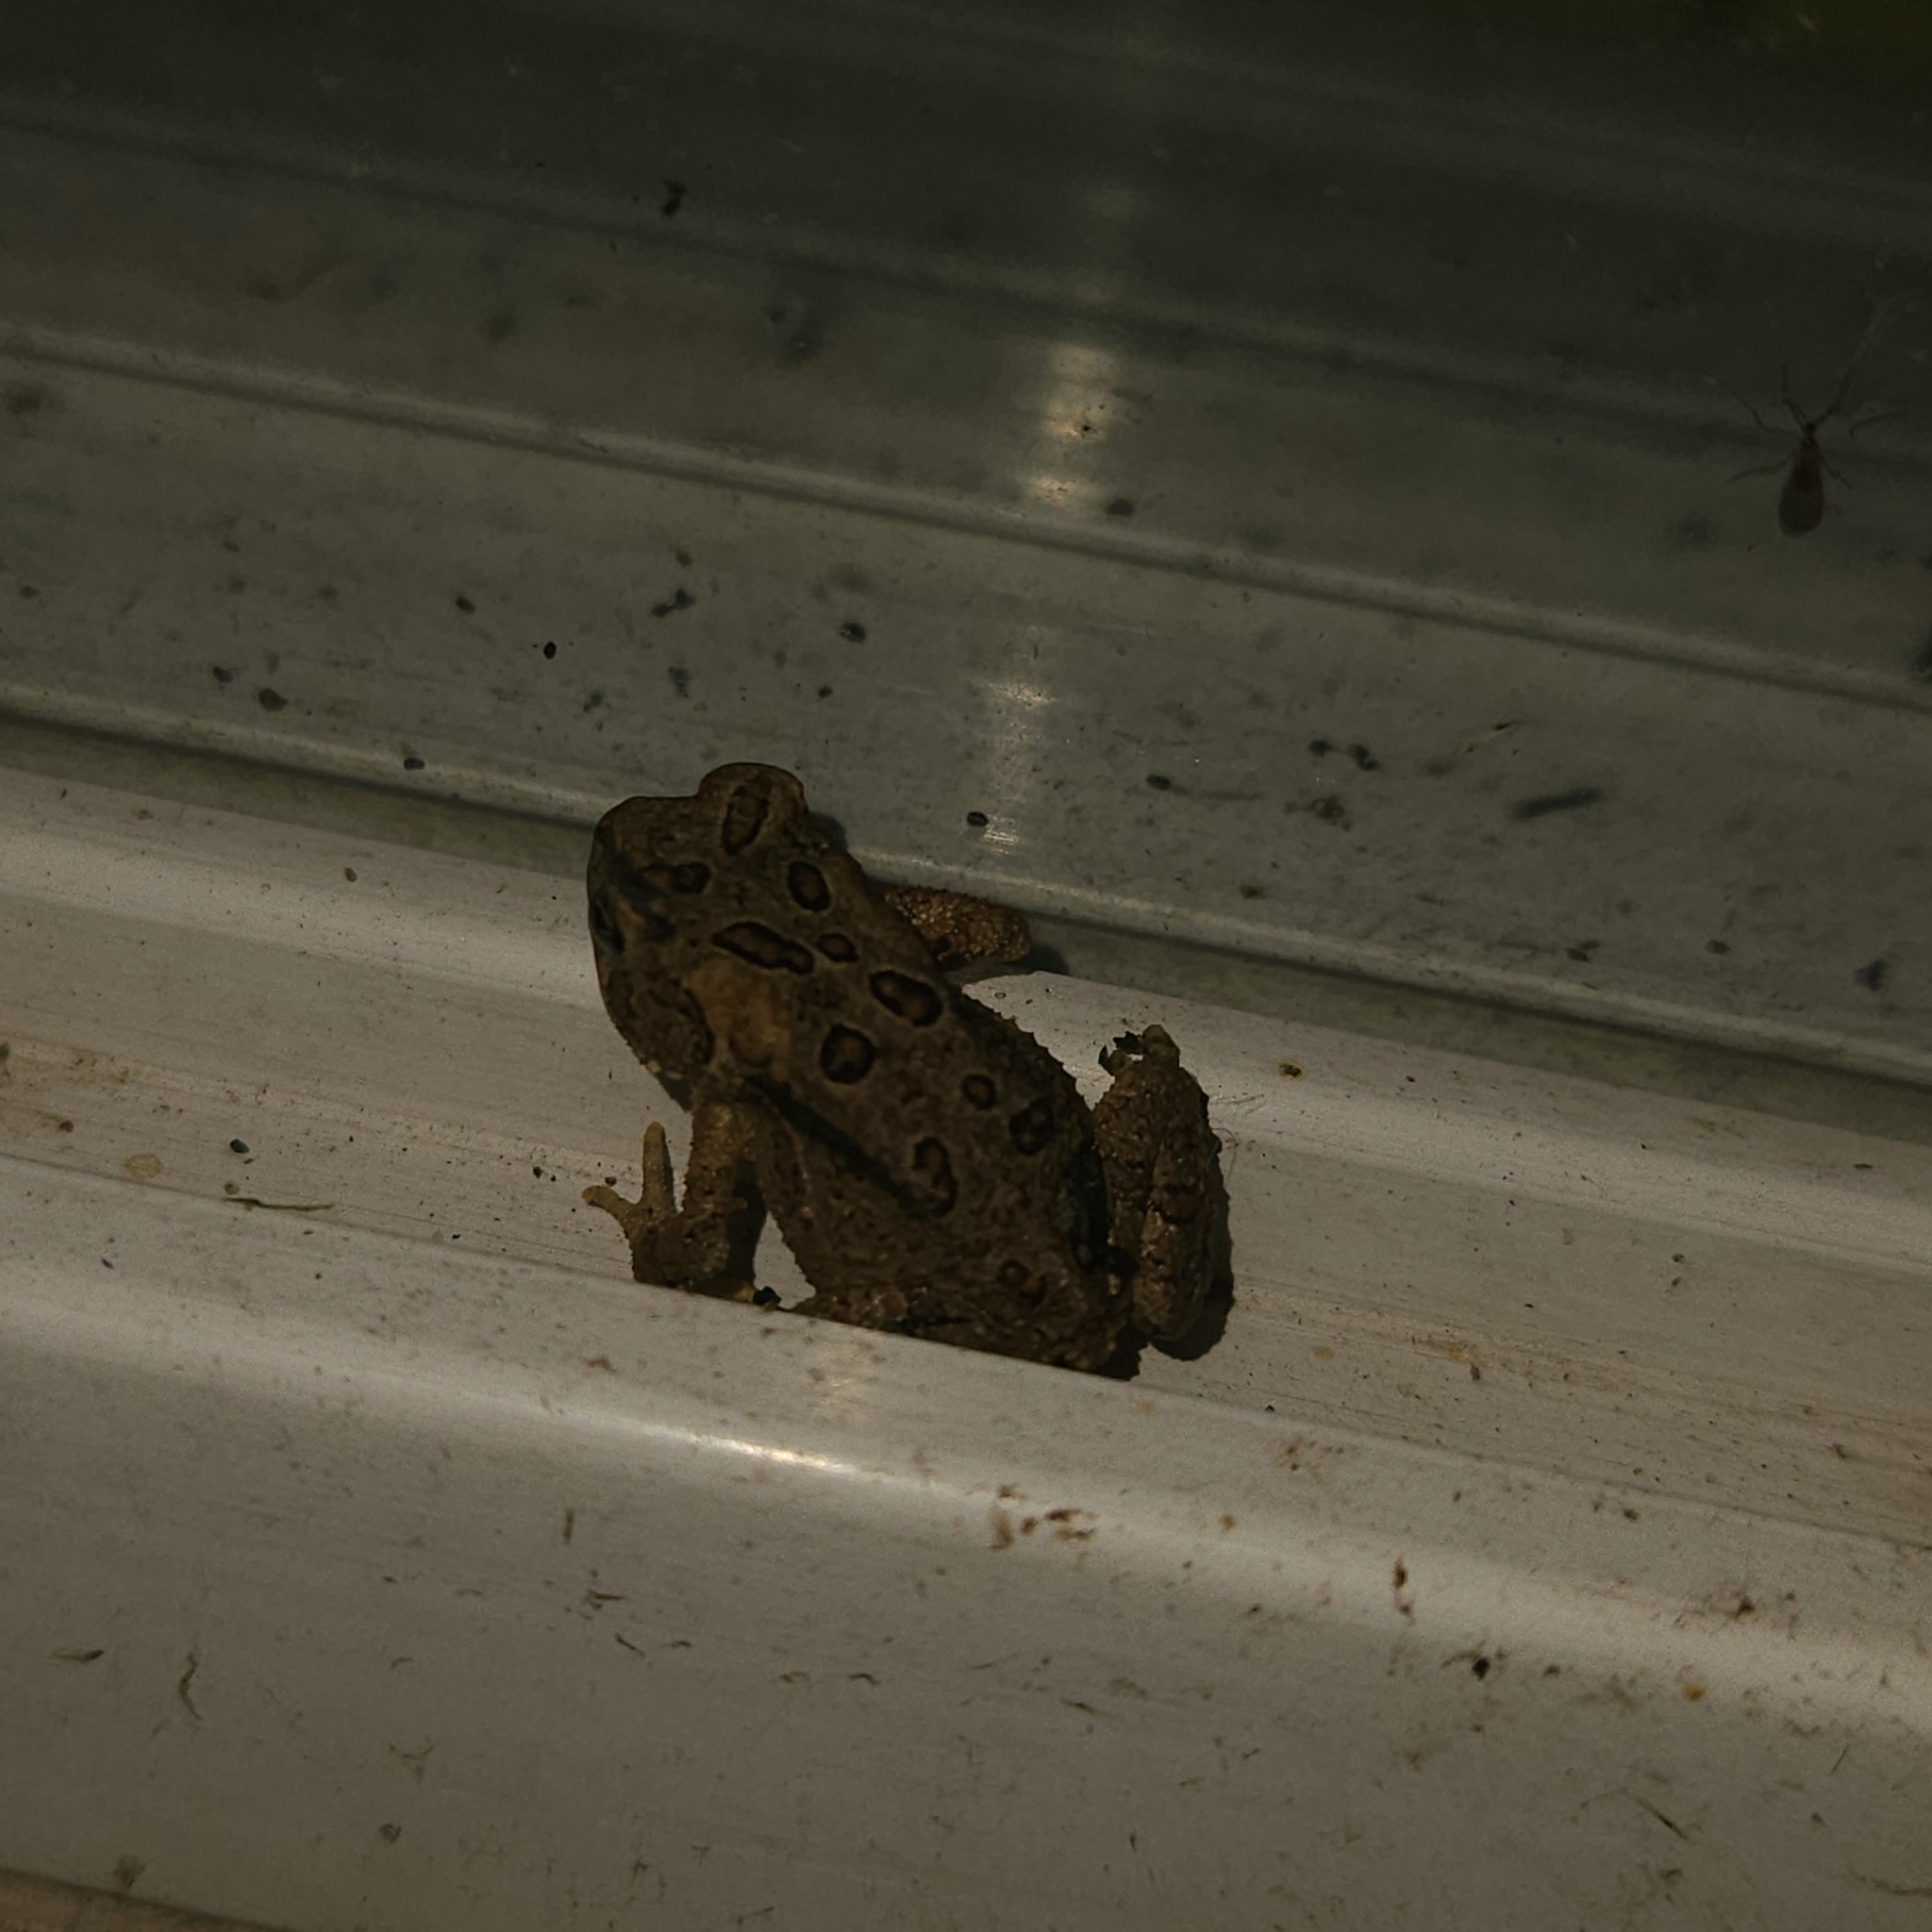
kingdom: Animalia
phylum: Chordata
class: Amphibia
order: Anura
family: Bufonidae
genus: Anaxyrus
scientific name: Anaxyrus americanus
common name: American toad
